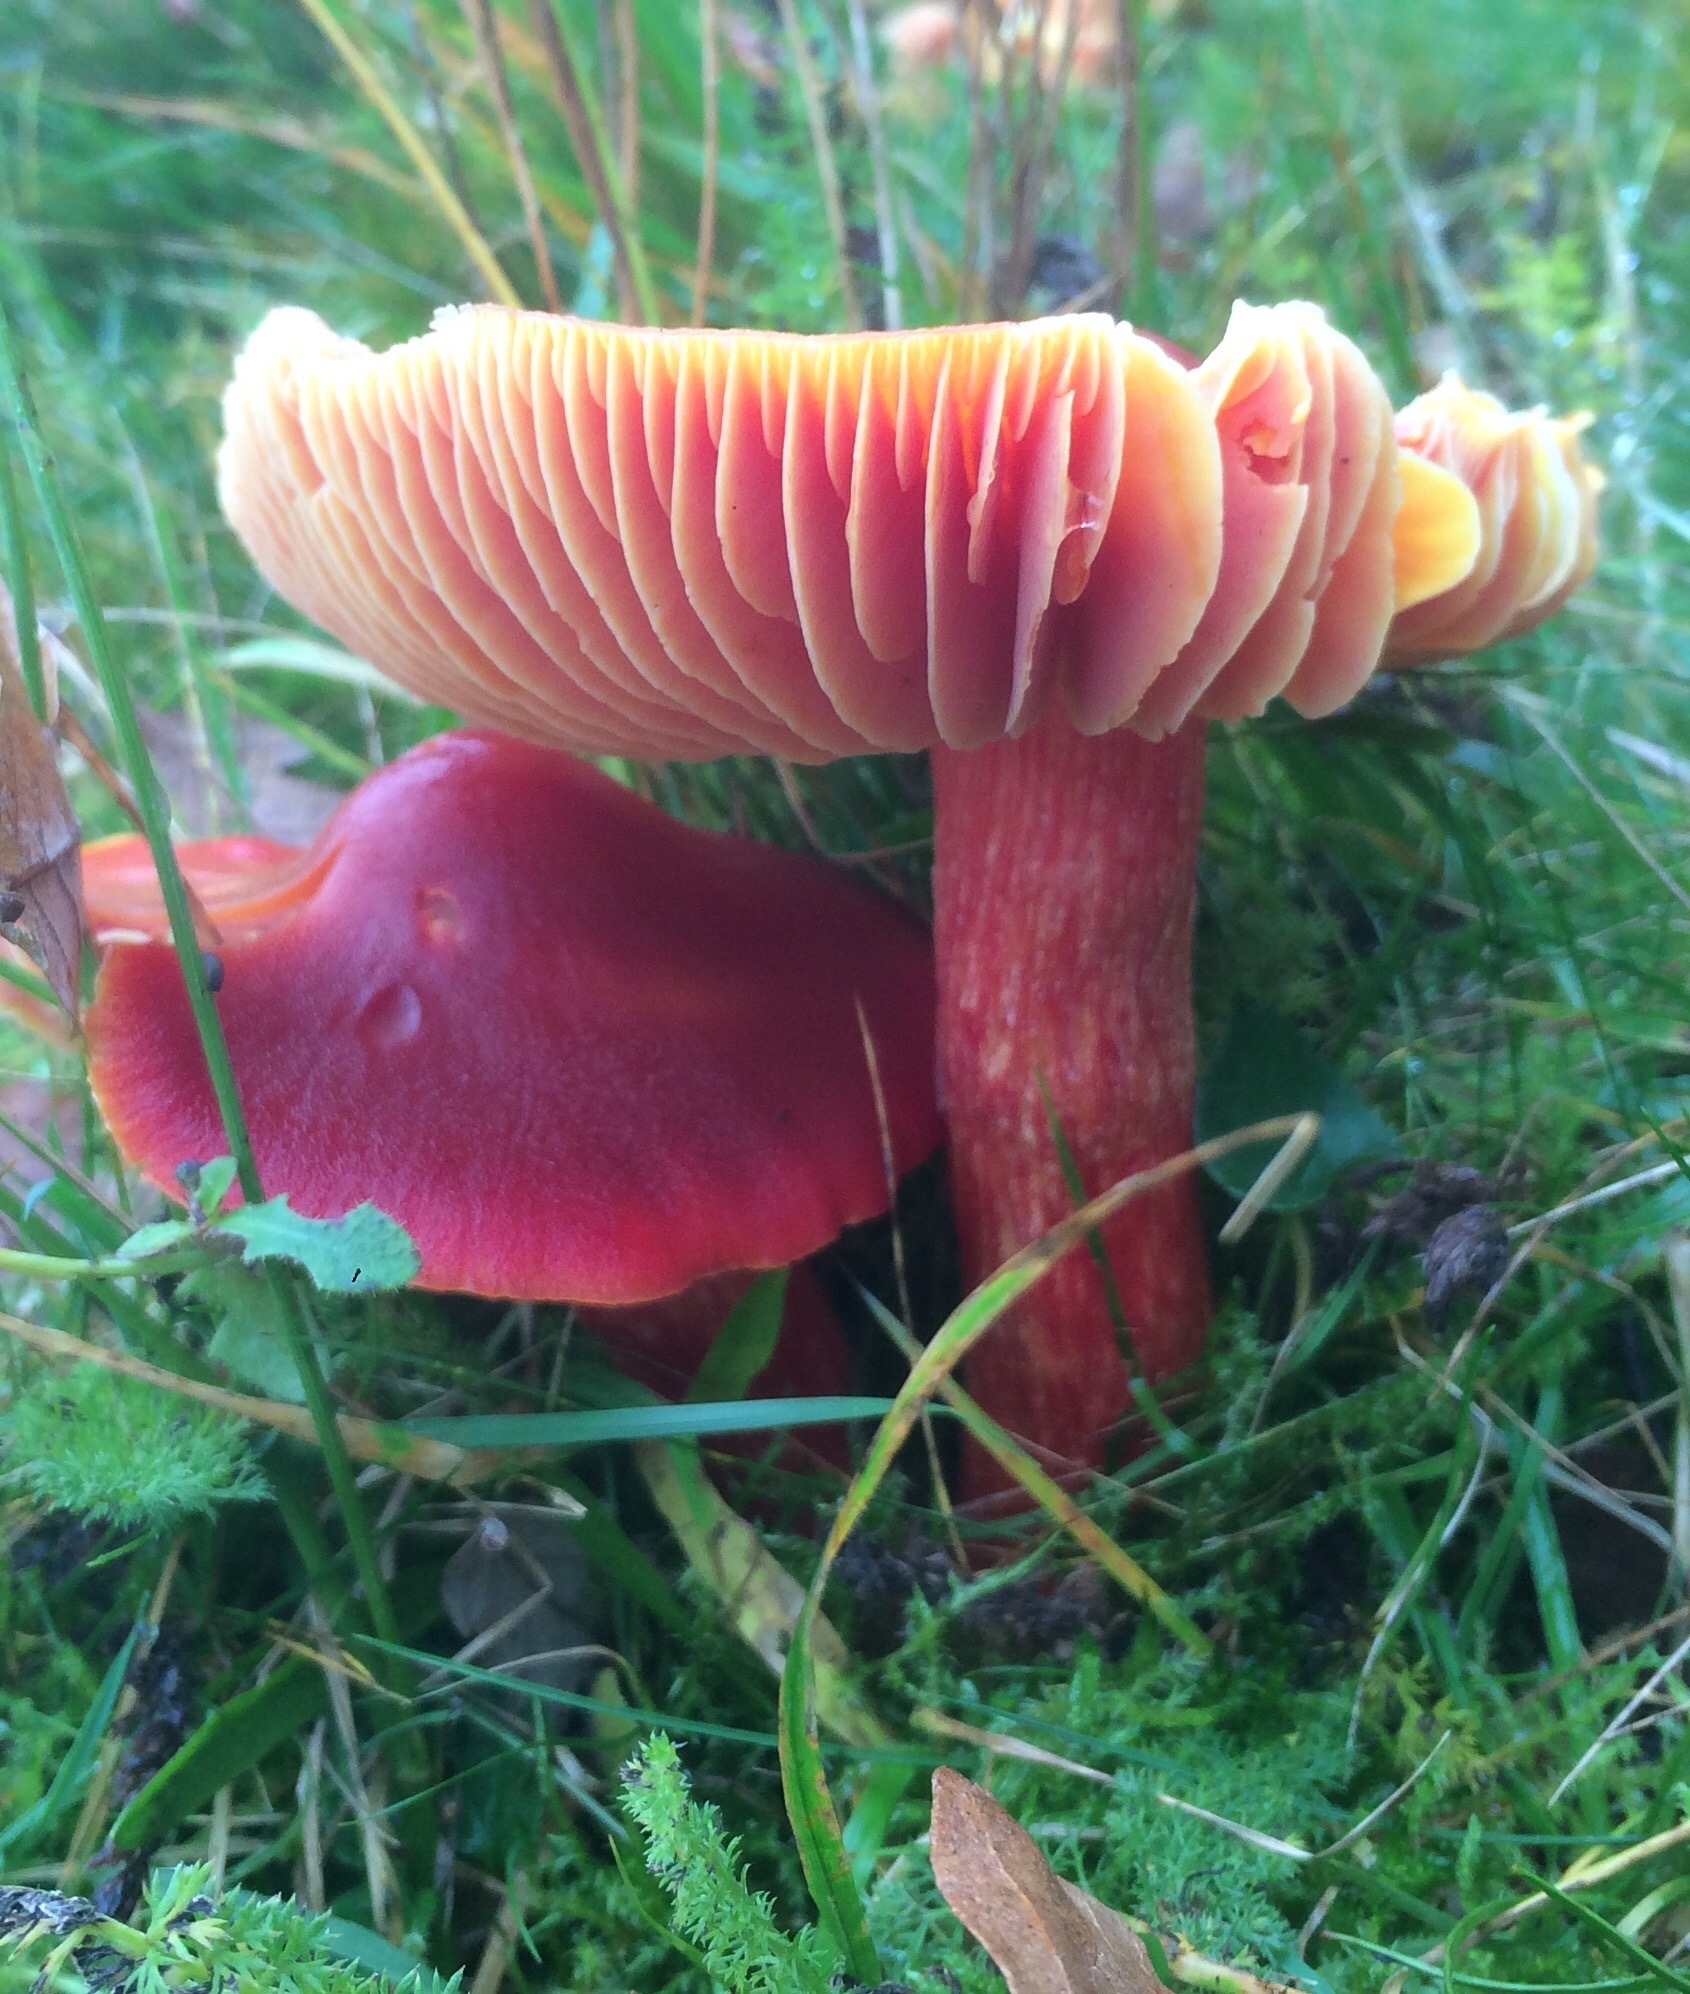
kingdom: Fungi
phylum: Basidiomycota
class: Agaricomycetes
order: Agaricales
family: Hygrophoraceae
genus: Hygrocybe
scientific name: Hygrocybe punicea
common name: Crimson waxcap
